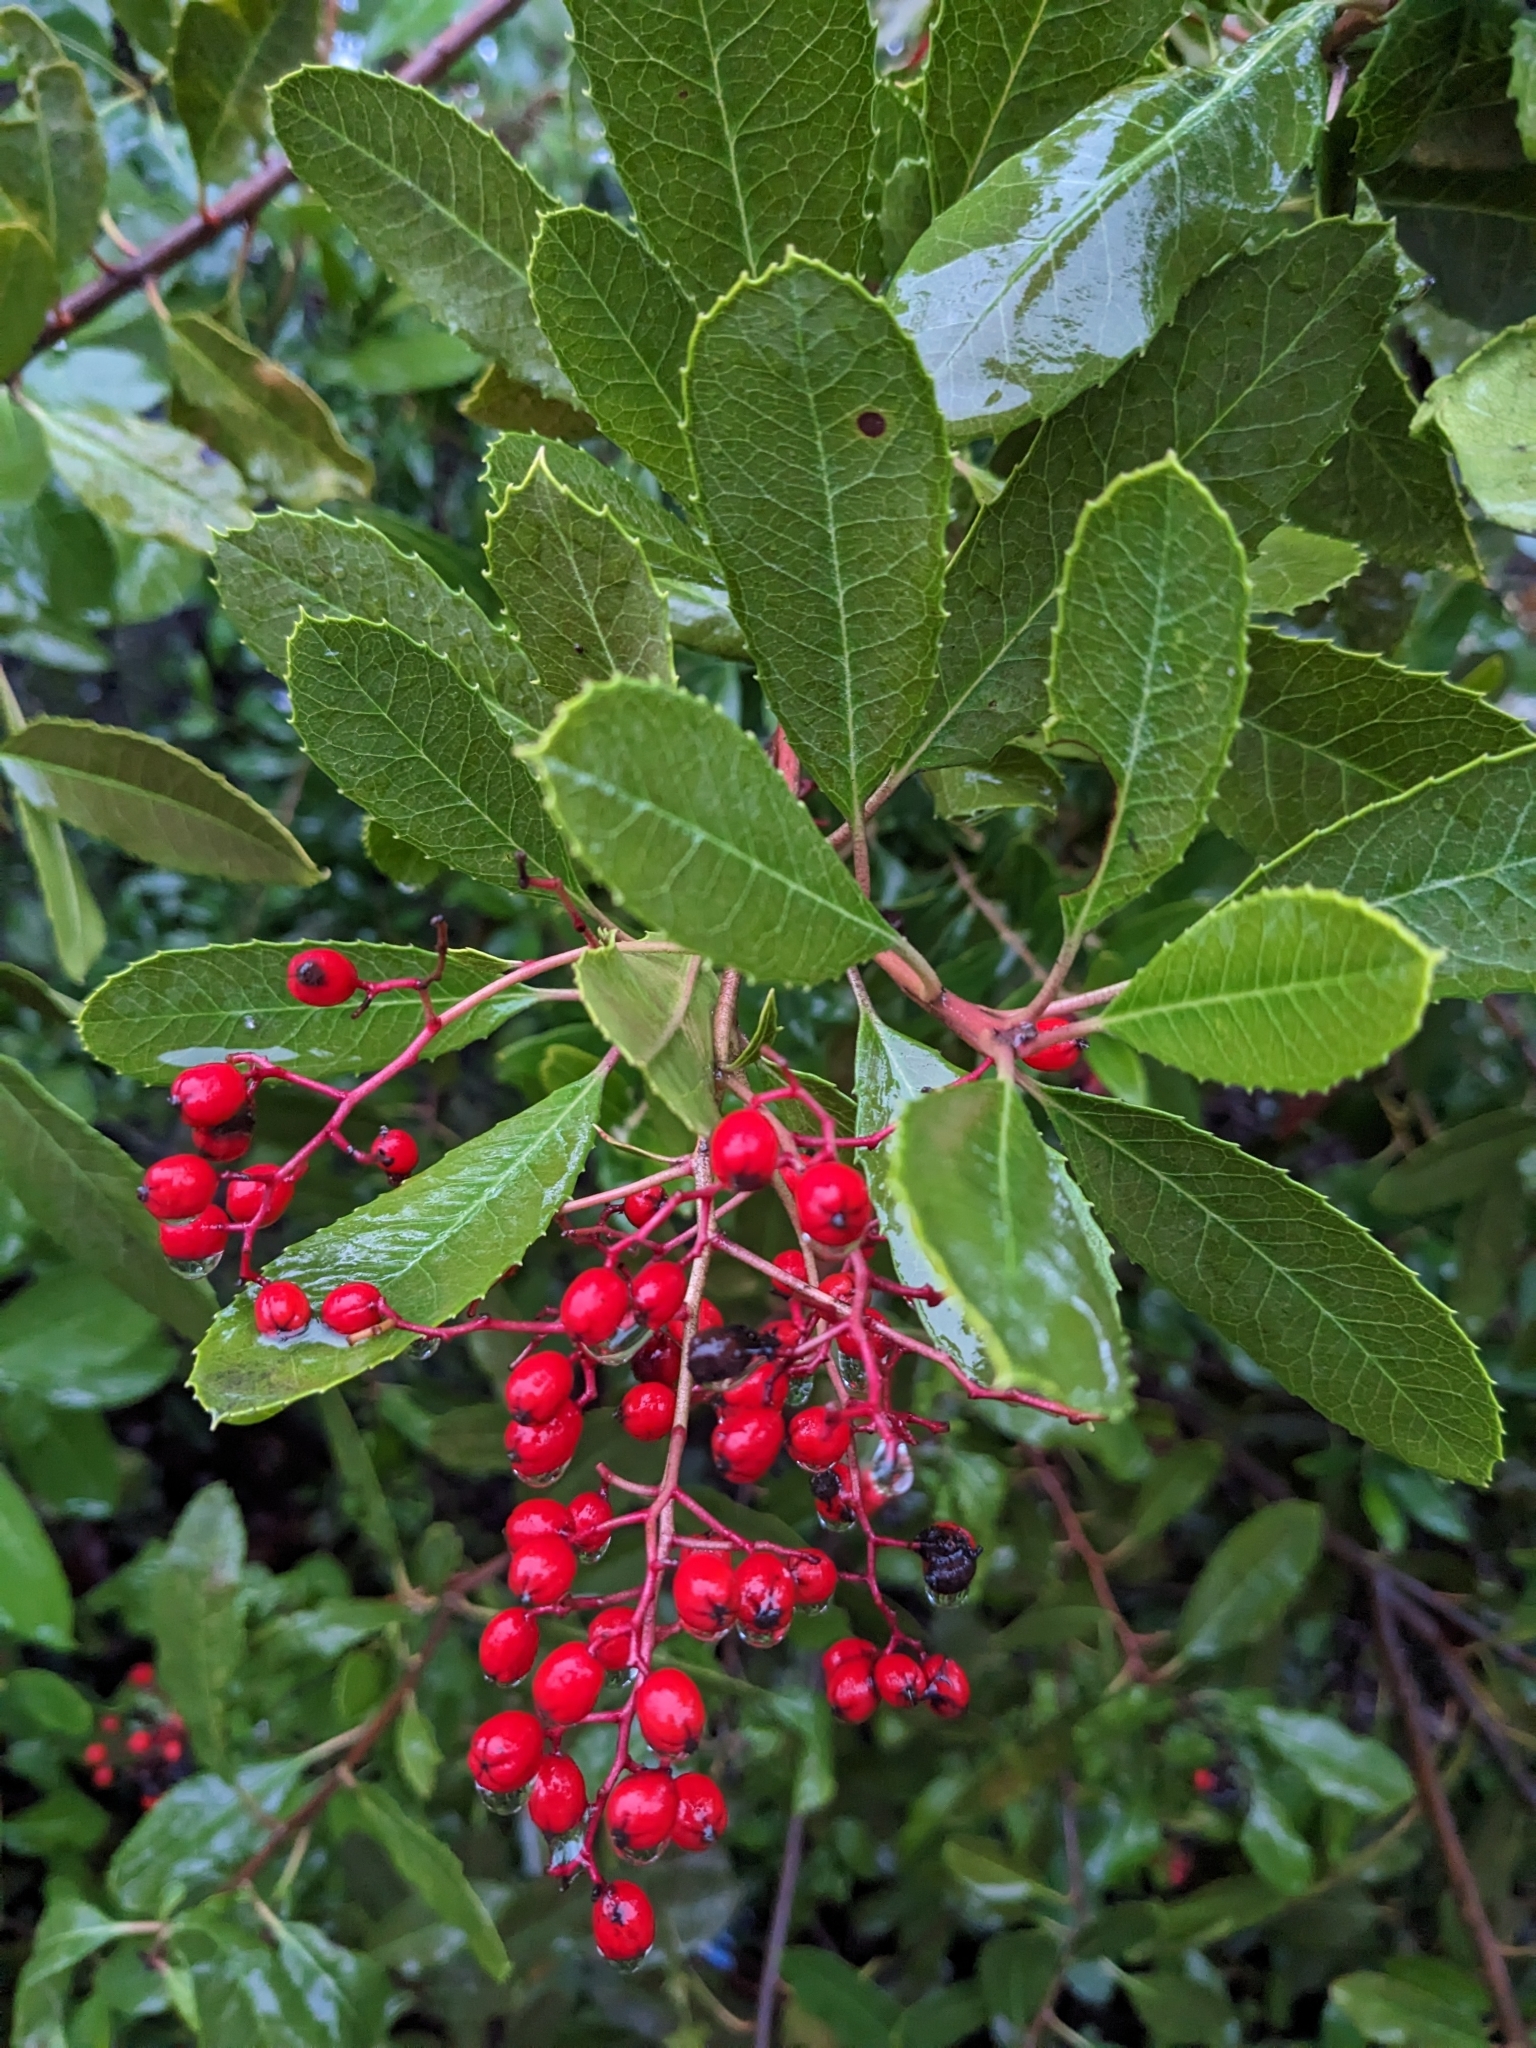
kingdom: Plantae
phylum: Tracheophyta
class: Magnoliopsida
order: Rosales
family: Rosaceae
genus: Heteromeles
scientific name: Heteromeles arbutifolia
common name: California-holly
